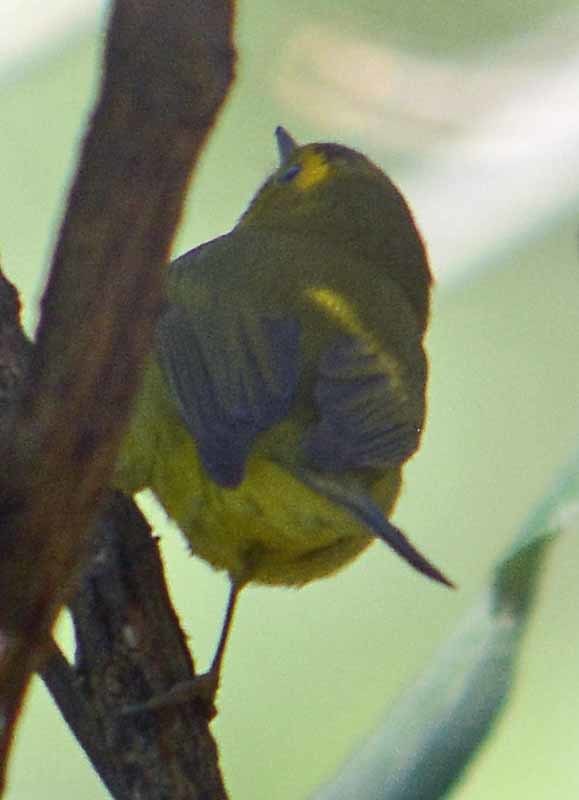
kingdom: Animalia
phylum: Chordata
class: Aves
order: Passeriformes
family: Parulidae
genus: Cardellina
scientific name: Cardellina pusilla
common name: Wilson's warbler
